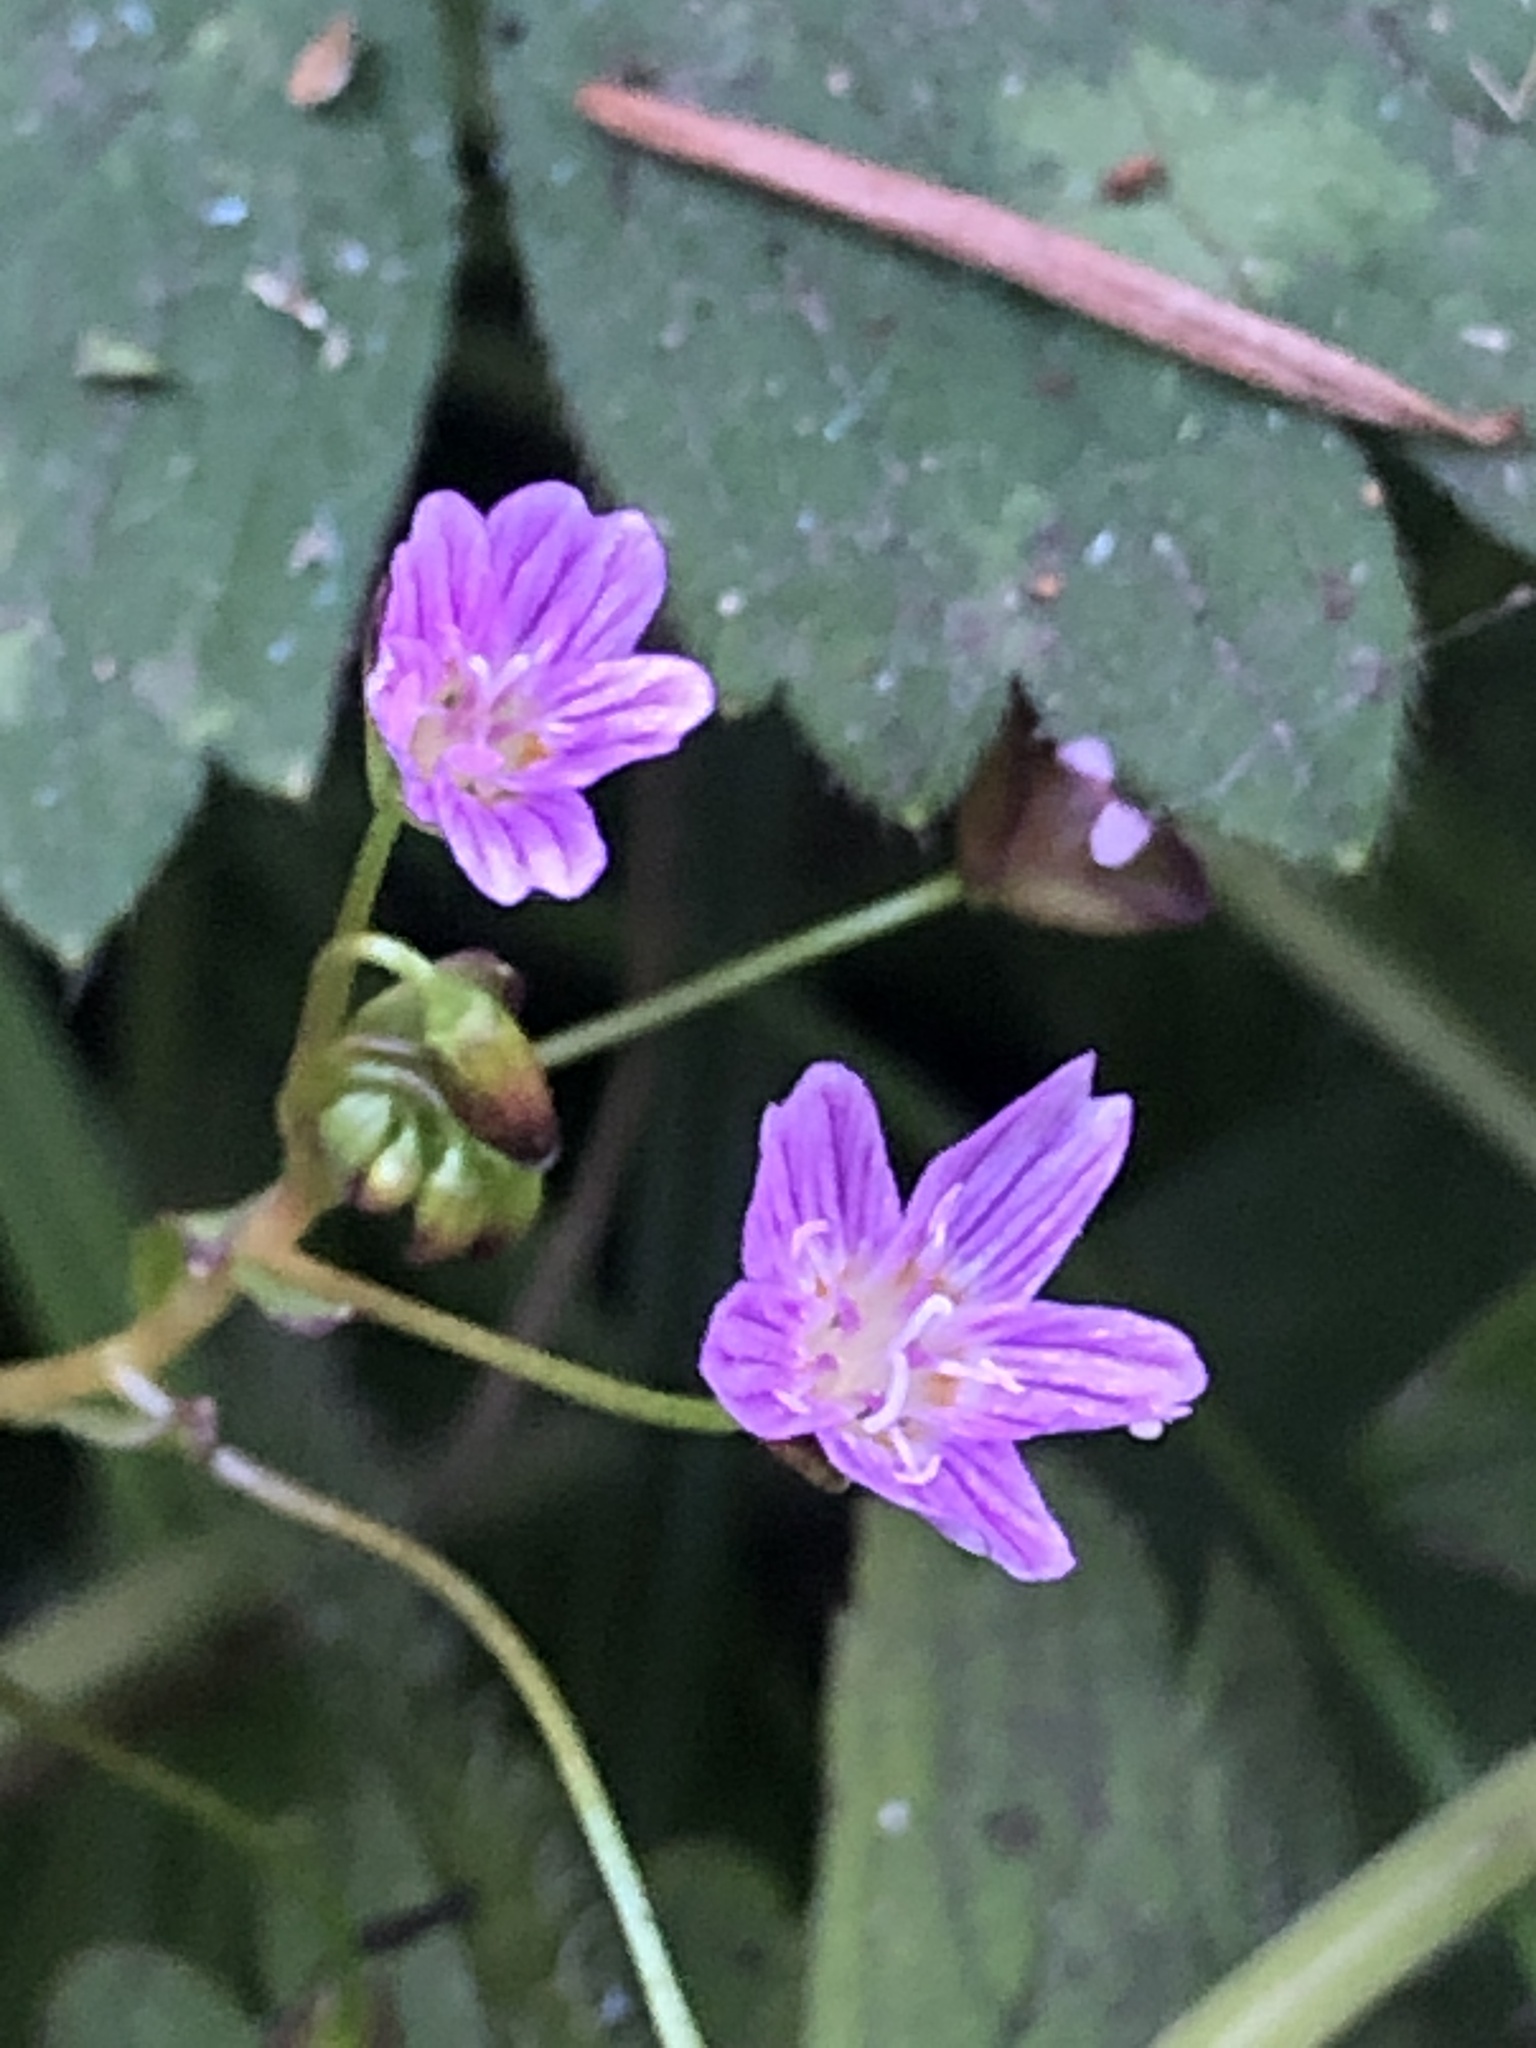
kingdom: Plantae
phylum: Tracheophyta
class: Magnoliopsida
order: Caryophyllales
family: Montiaceae
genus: Claytonia
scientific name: Claytonia sibirica
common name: Pink purslane
